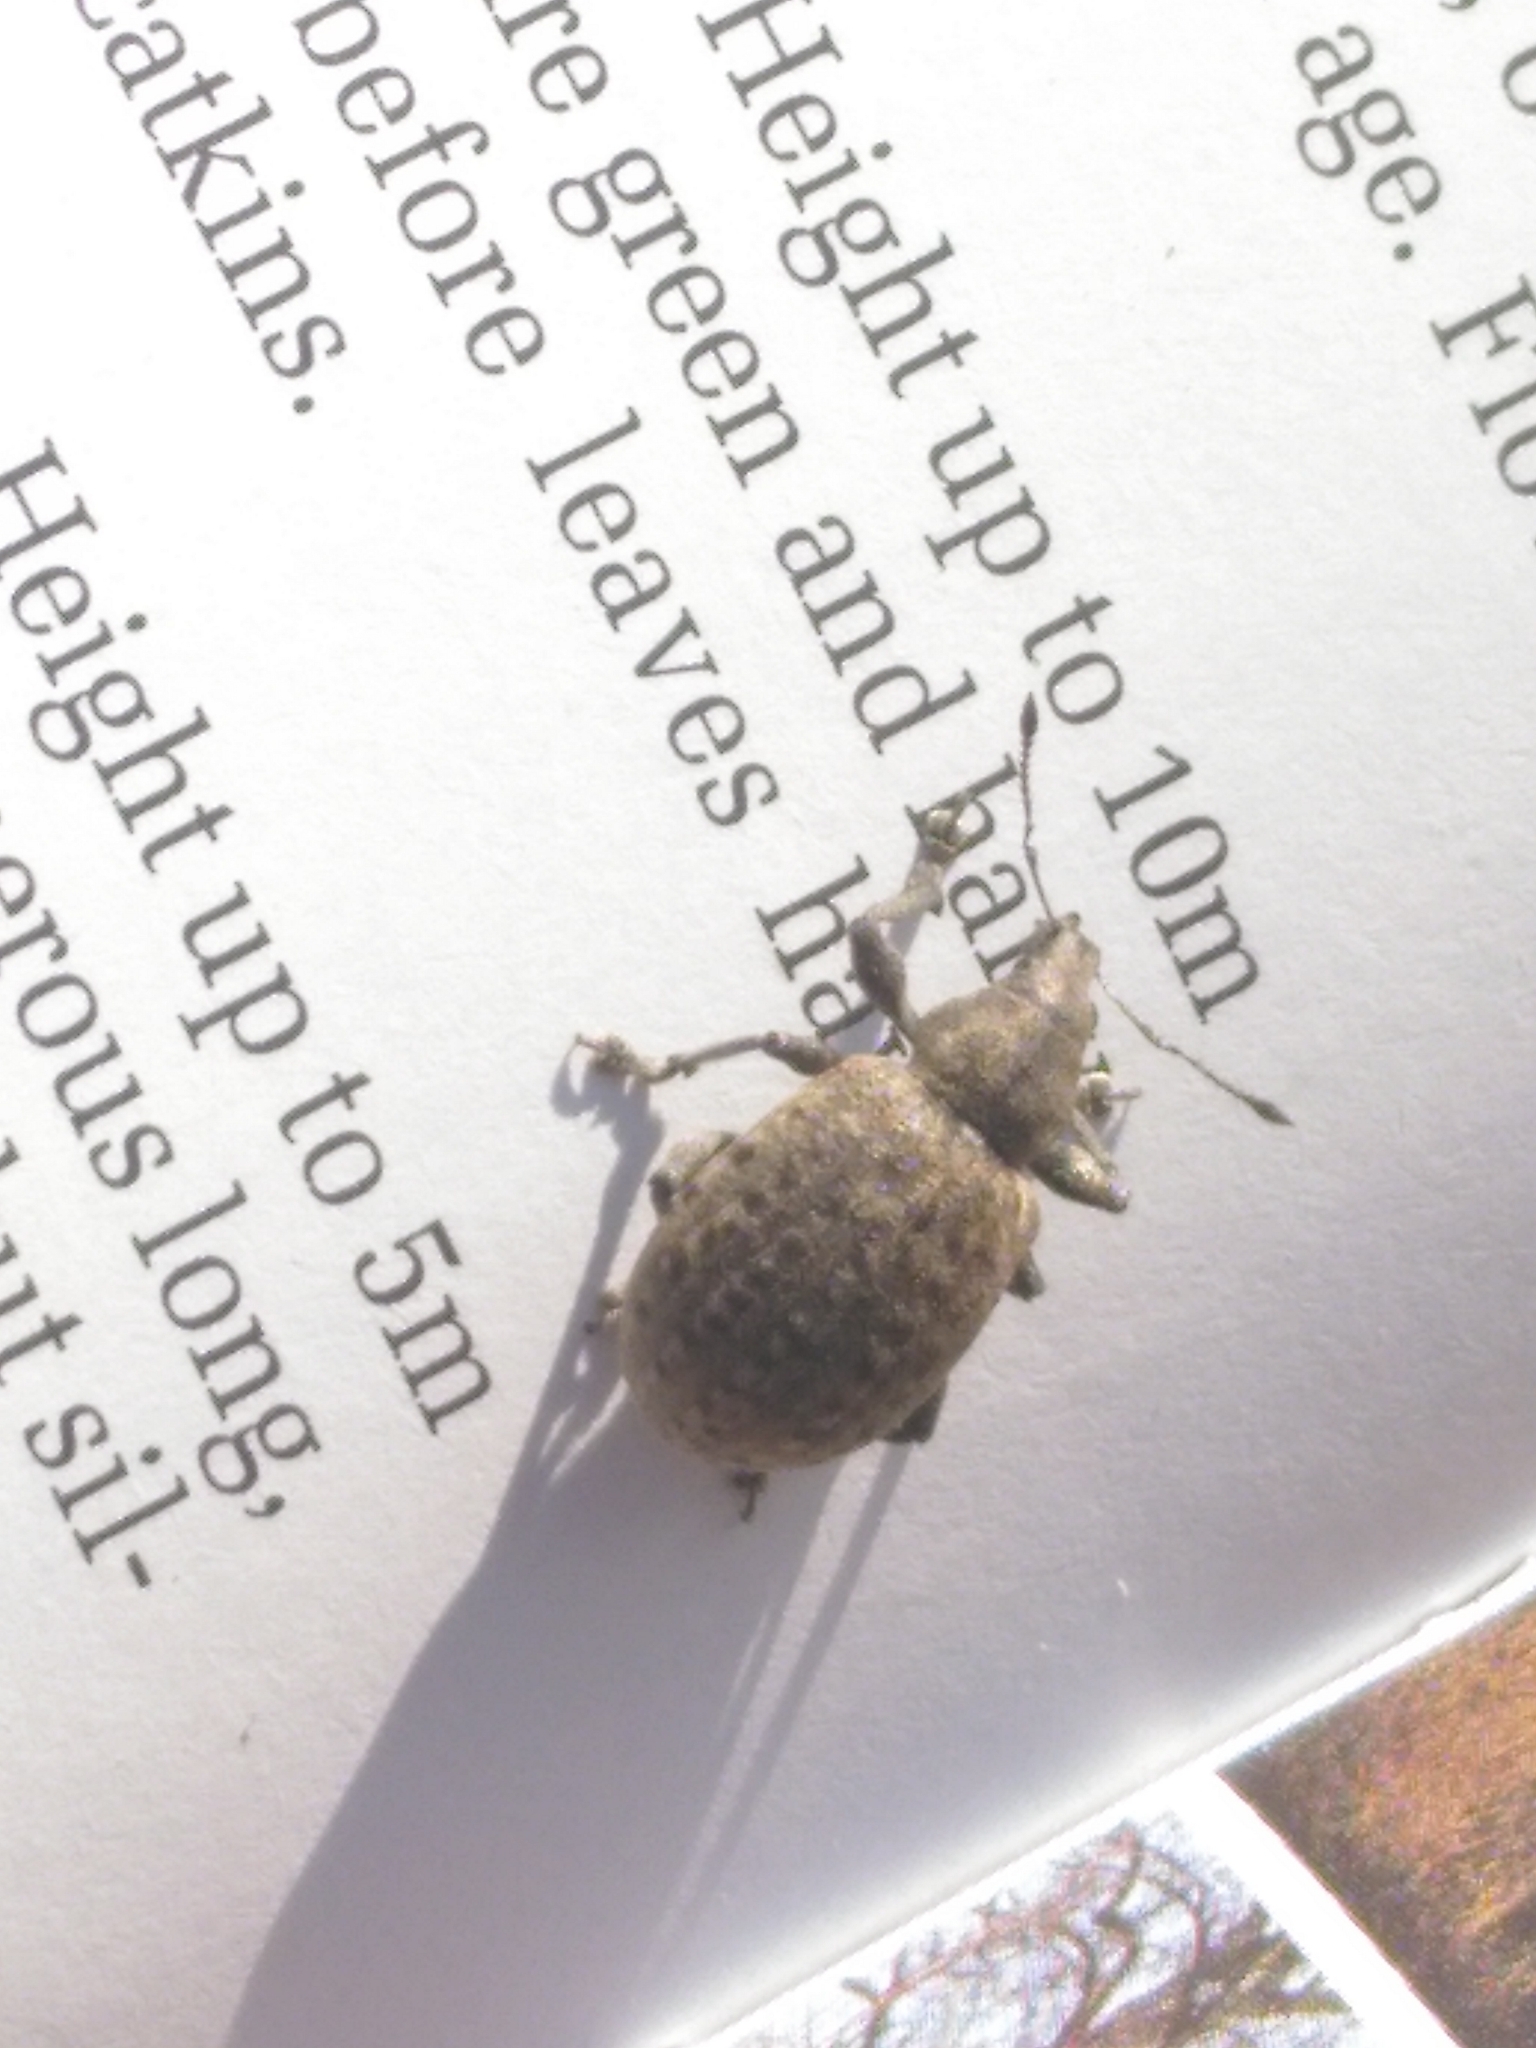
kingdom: Animalia
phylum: Arthropoda
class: Insecta
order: Coleoptera
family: Curculionidae
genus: Liophloeus
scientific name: Liophloeus tessulatus
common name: Weevil
